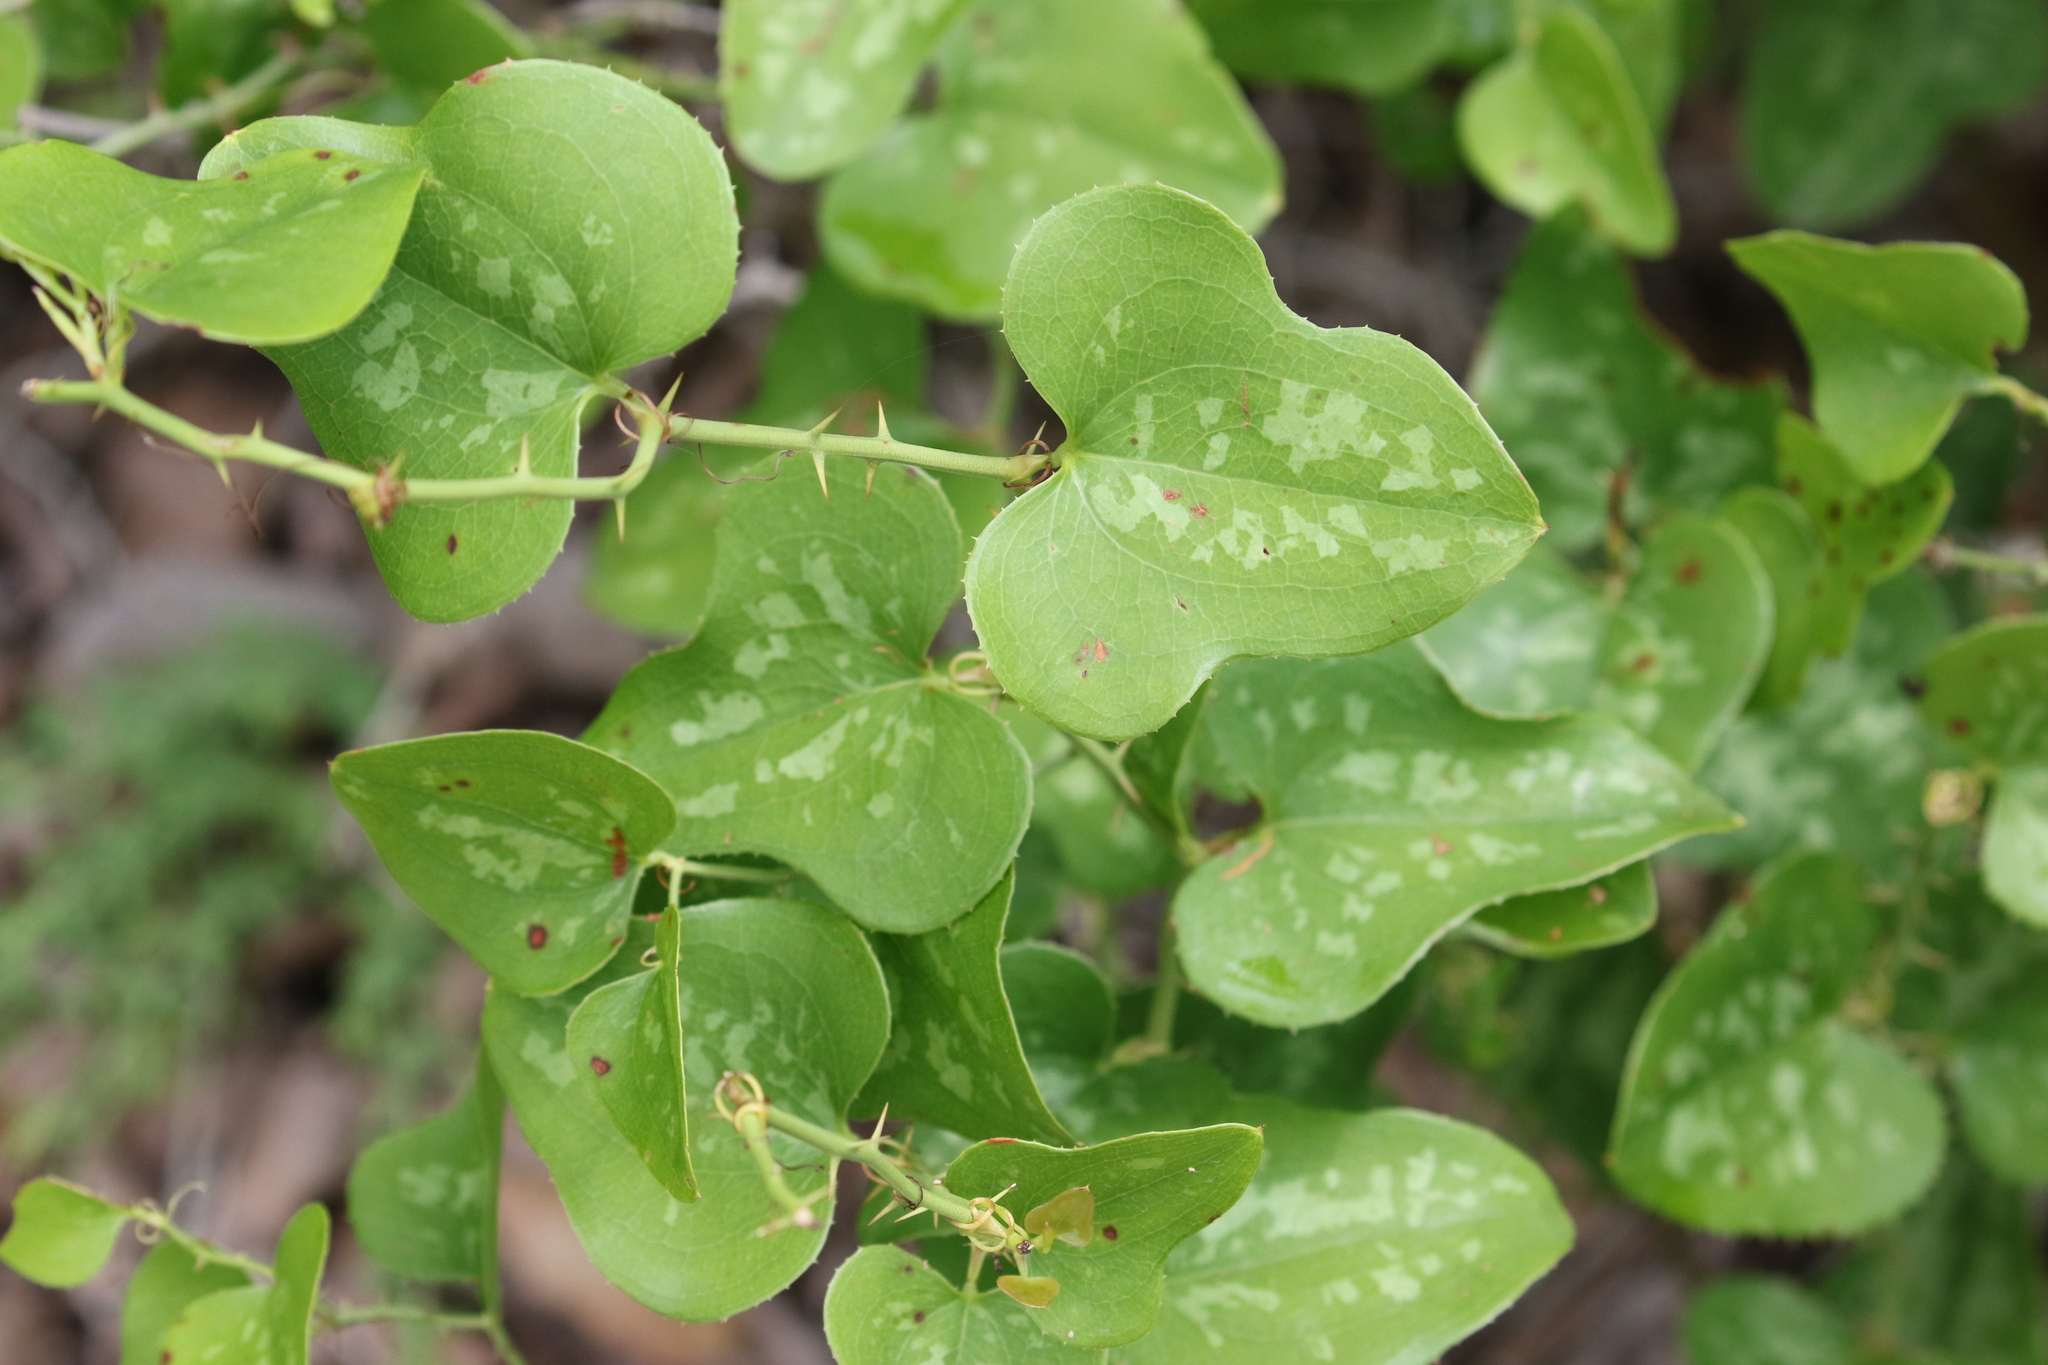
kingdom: Plantae
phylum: Tracheophyta
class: Liliopsida
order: Liliales
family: Smilacaceae
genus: Smilax
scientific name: Smilax bona-nox
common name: Catbrier
